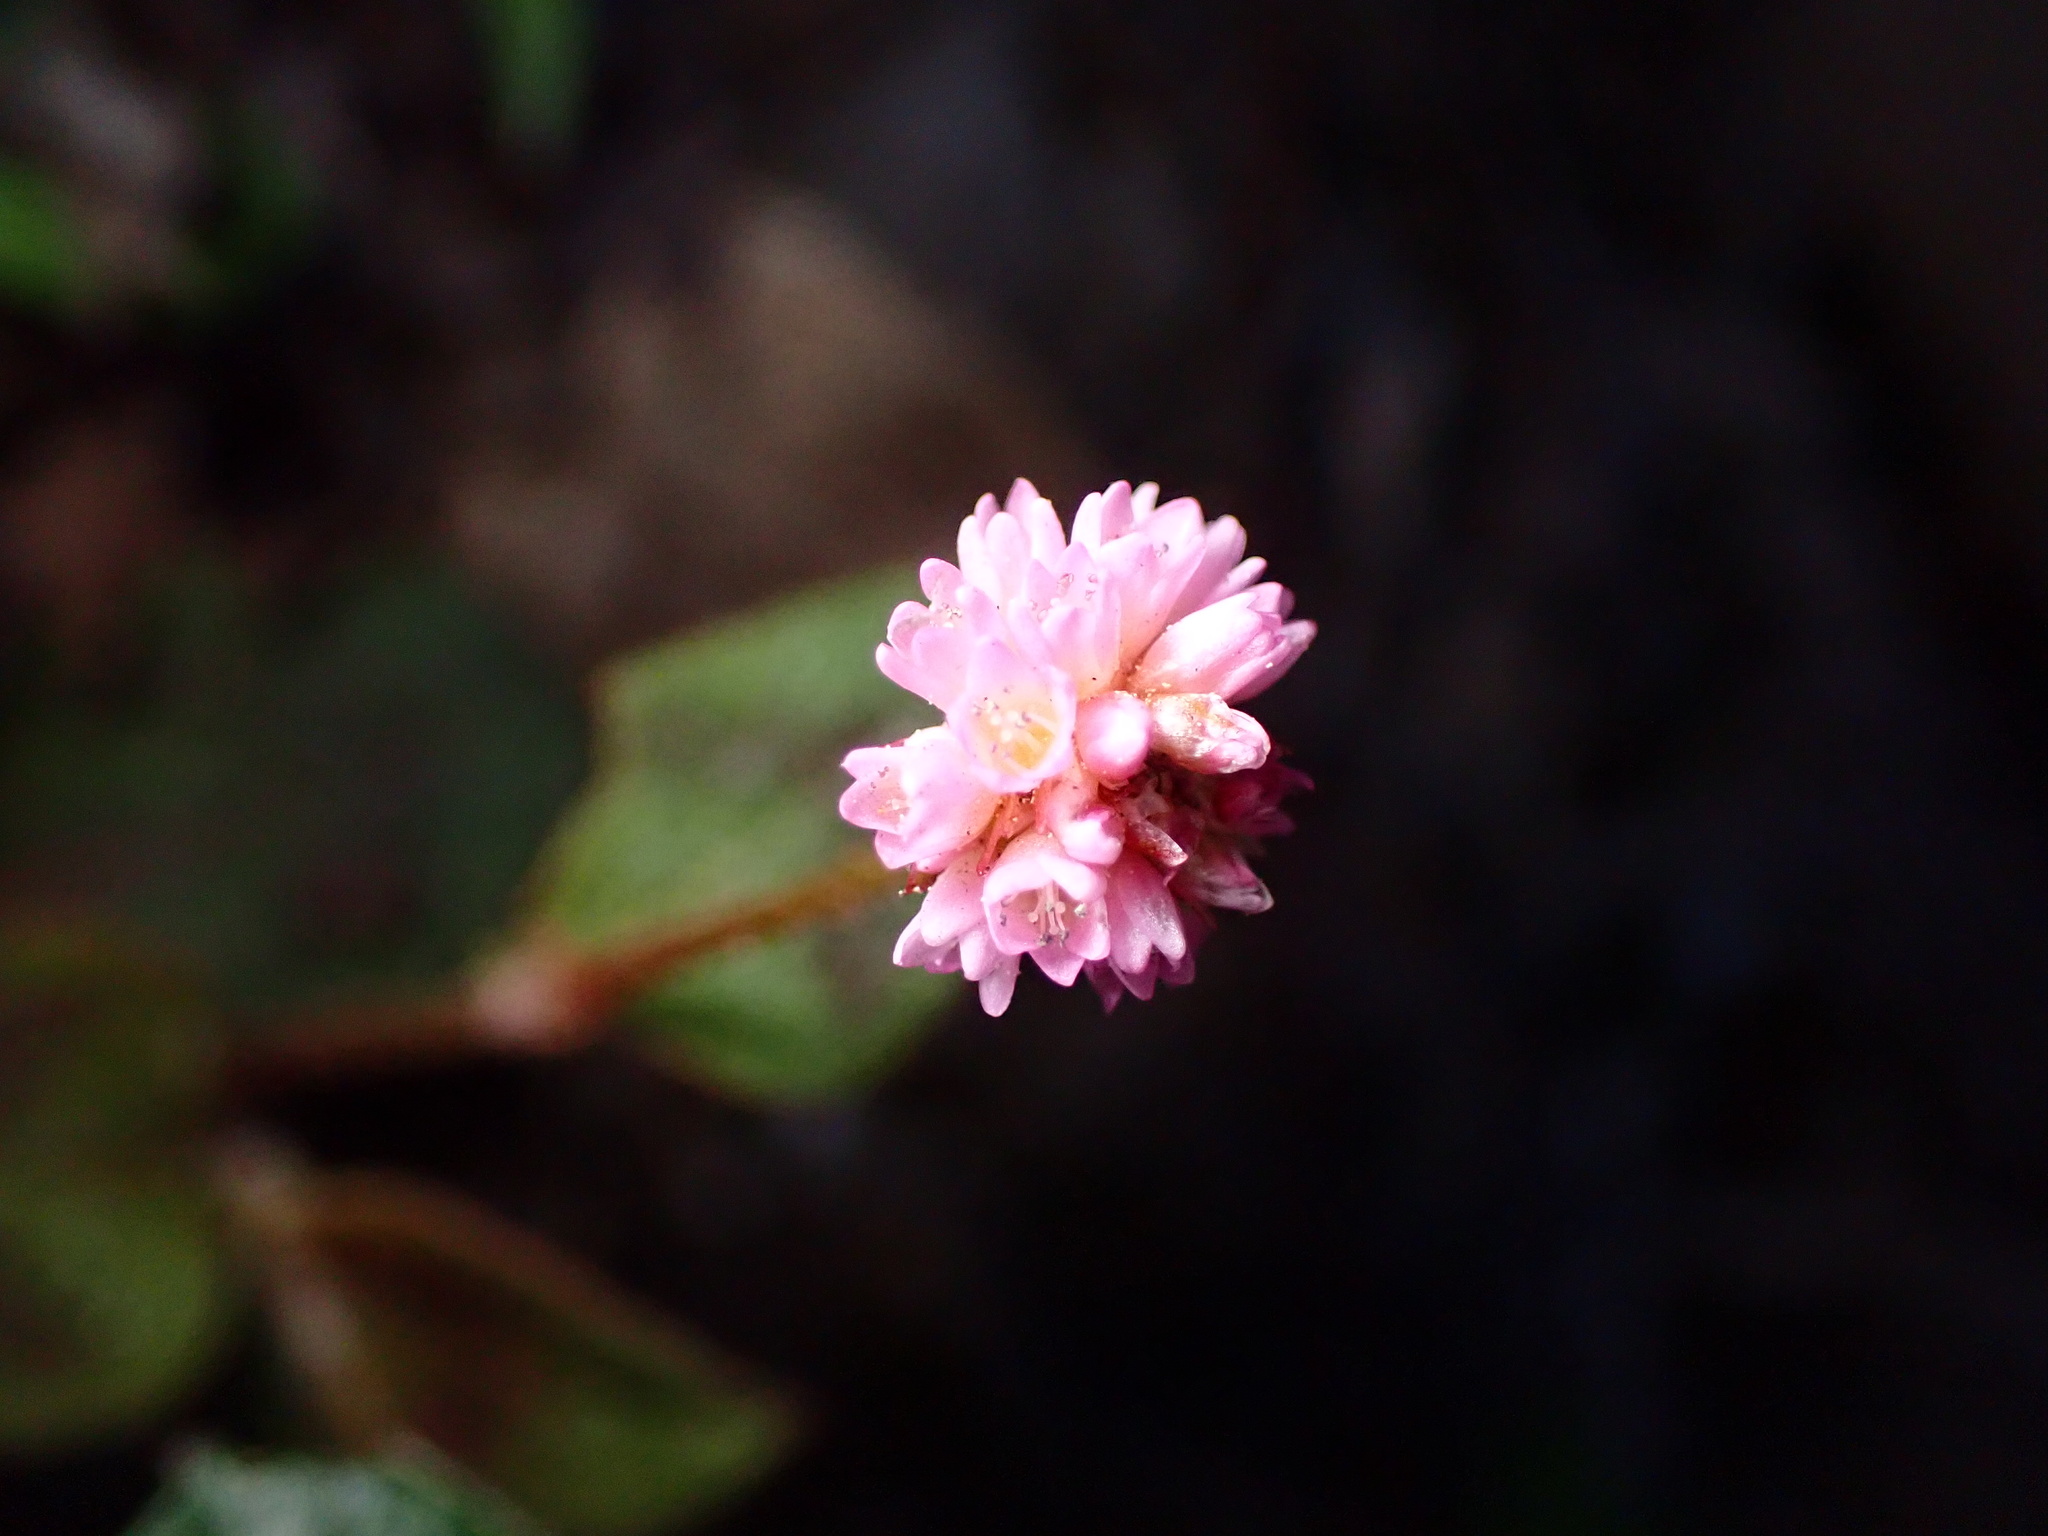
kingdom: Plantae
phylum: Tracheophyta
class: Magnoliopsida
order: Caryophyllales
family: Polygonaceae
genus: Persicaria
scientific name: Persicaria capitata
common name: Pinkhead smartweed
